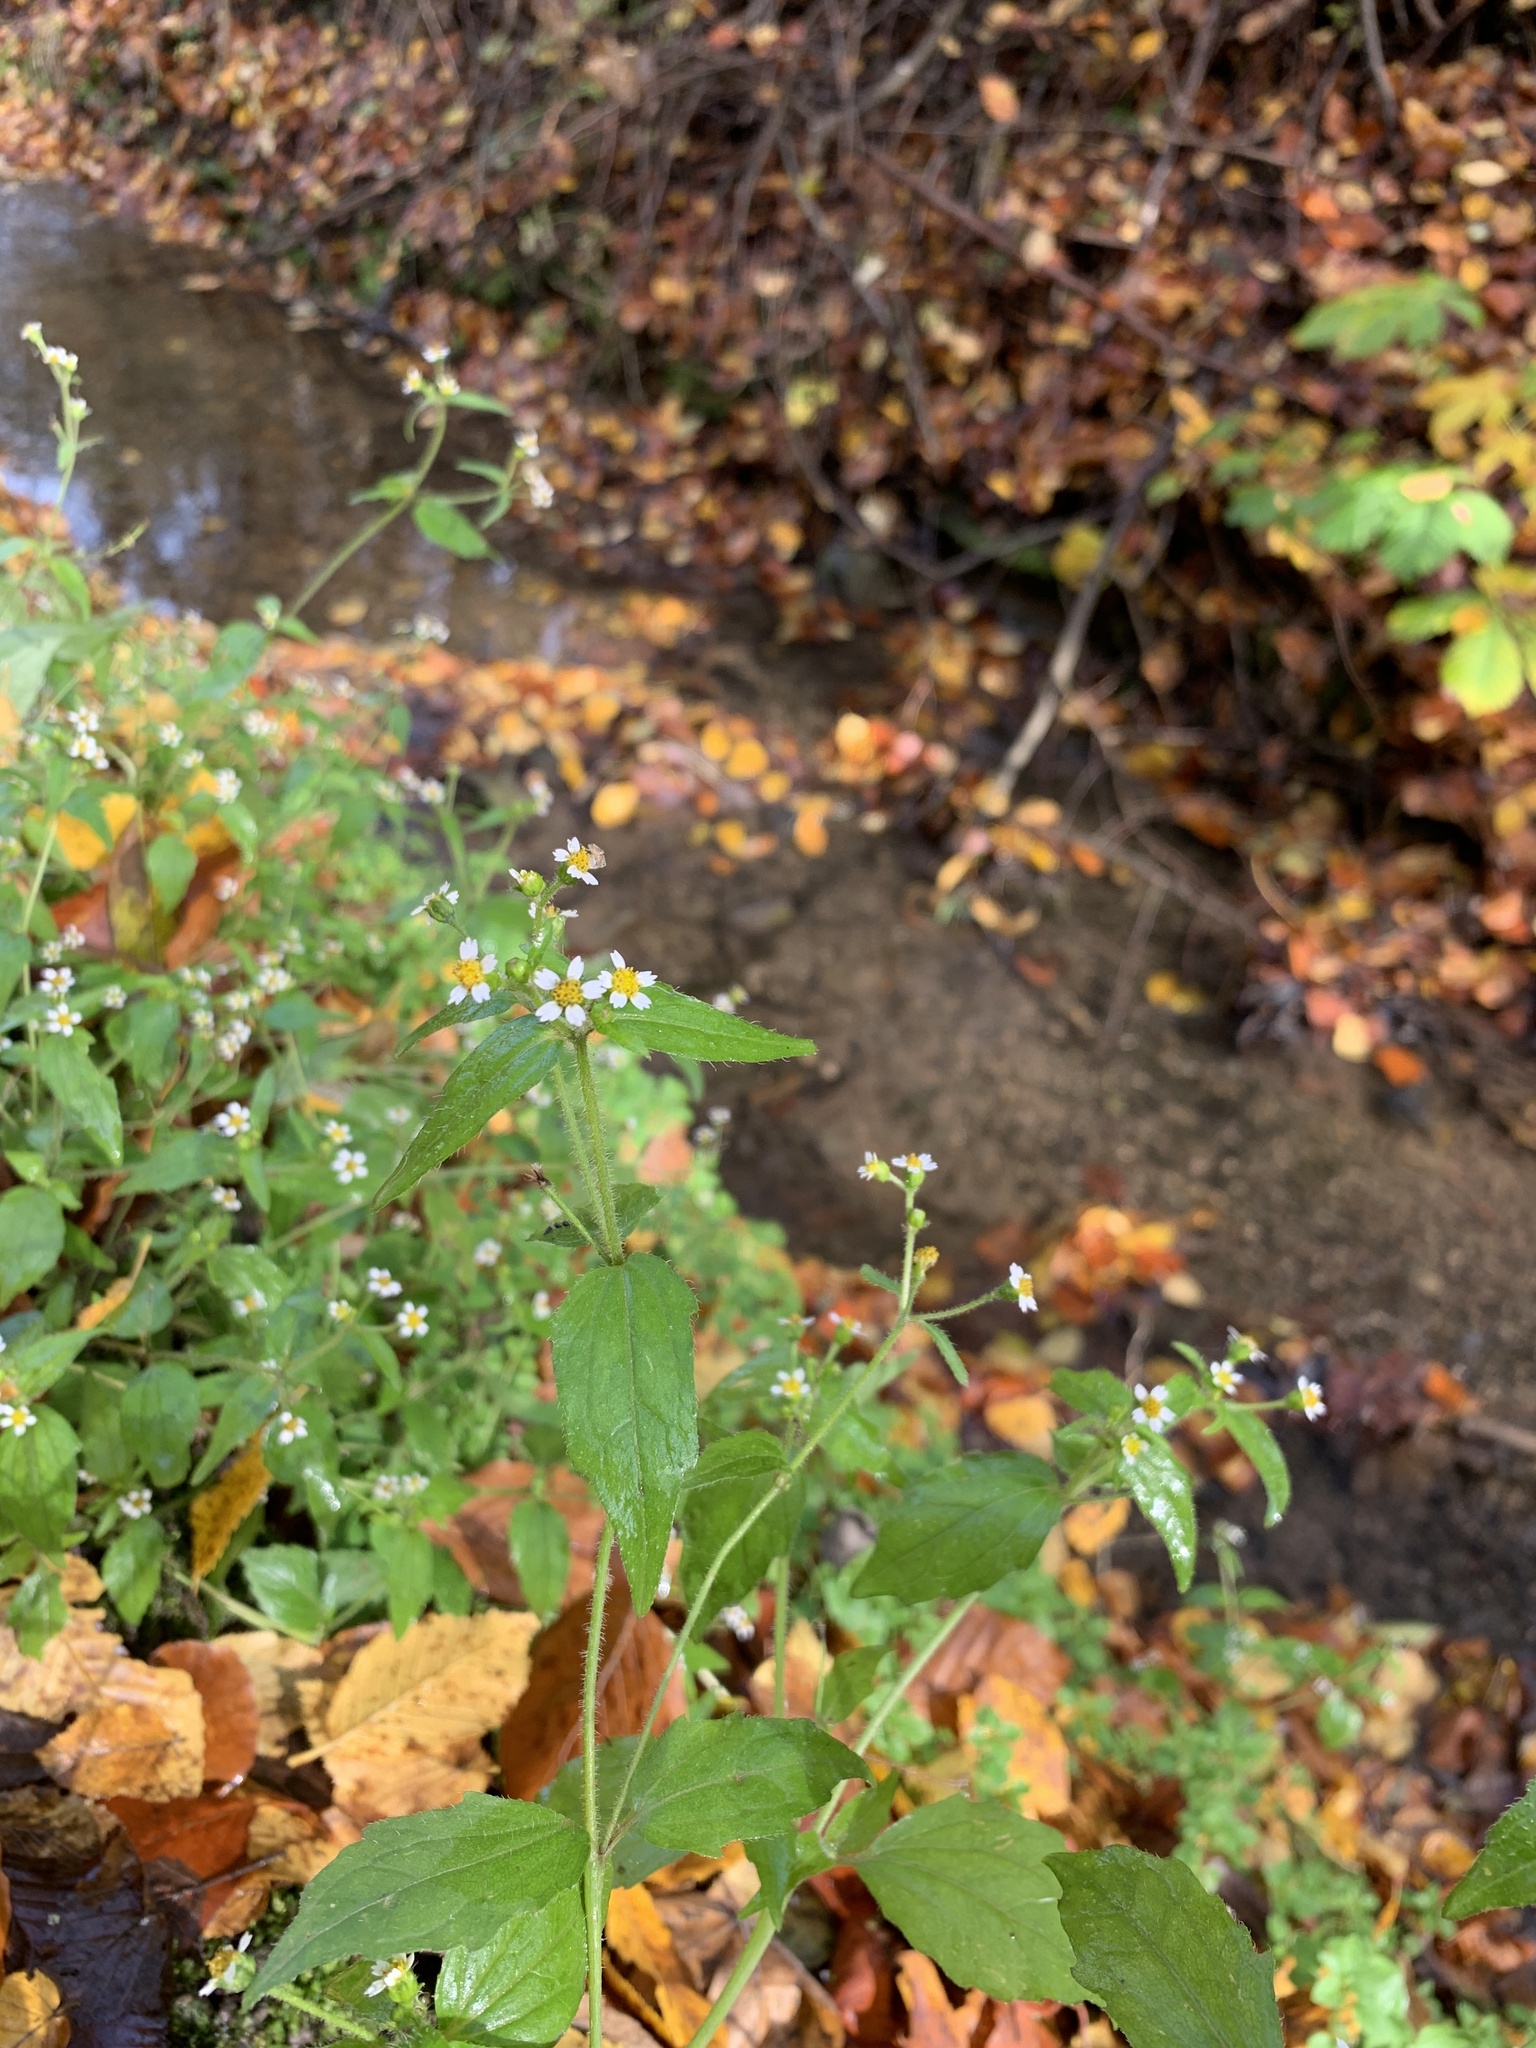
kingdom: Plantae
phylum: Tracheophyta
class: Magnoliopsida
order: Asterales
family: Asteraceae
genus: Galinsoga
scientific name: Galinsoga quadriradiata
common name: Shaggy soldier
